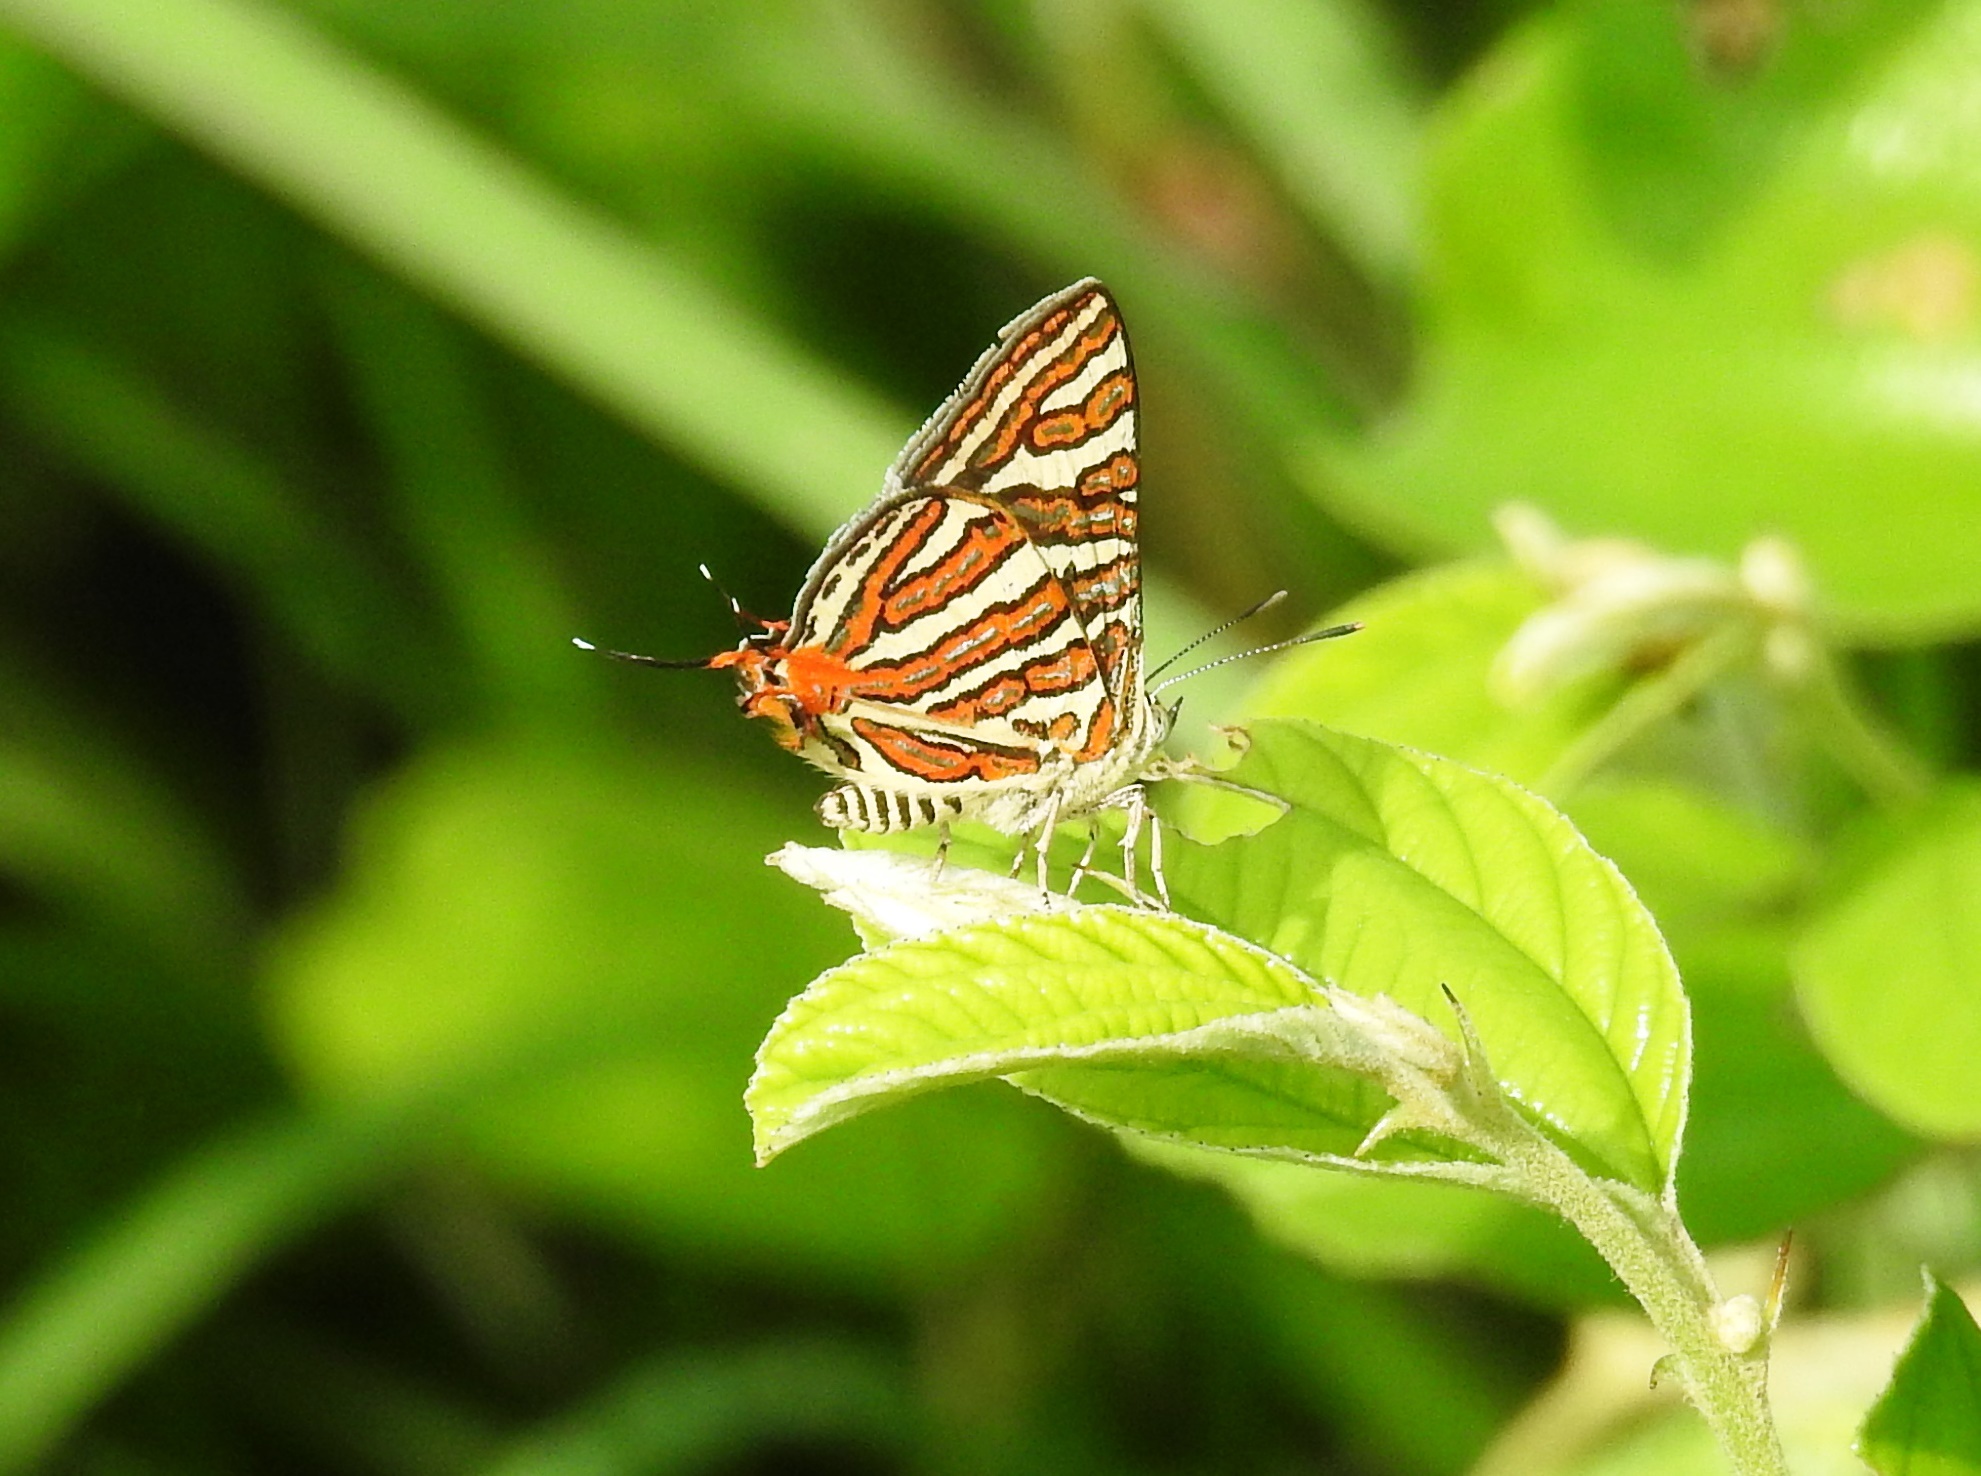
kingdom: Animalia
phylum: Arthropoda
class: Insecta
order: Lepidoptera
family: Lycaenidae
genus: Cigaritis
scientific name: Cigaritis vulcanus
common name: Common silverline
